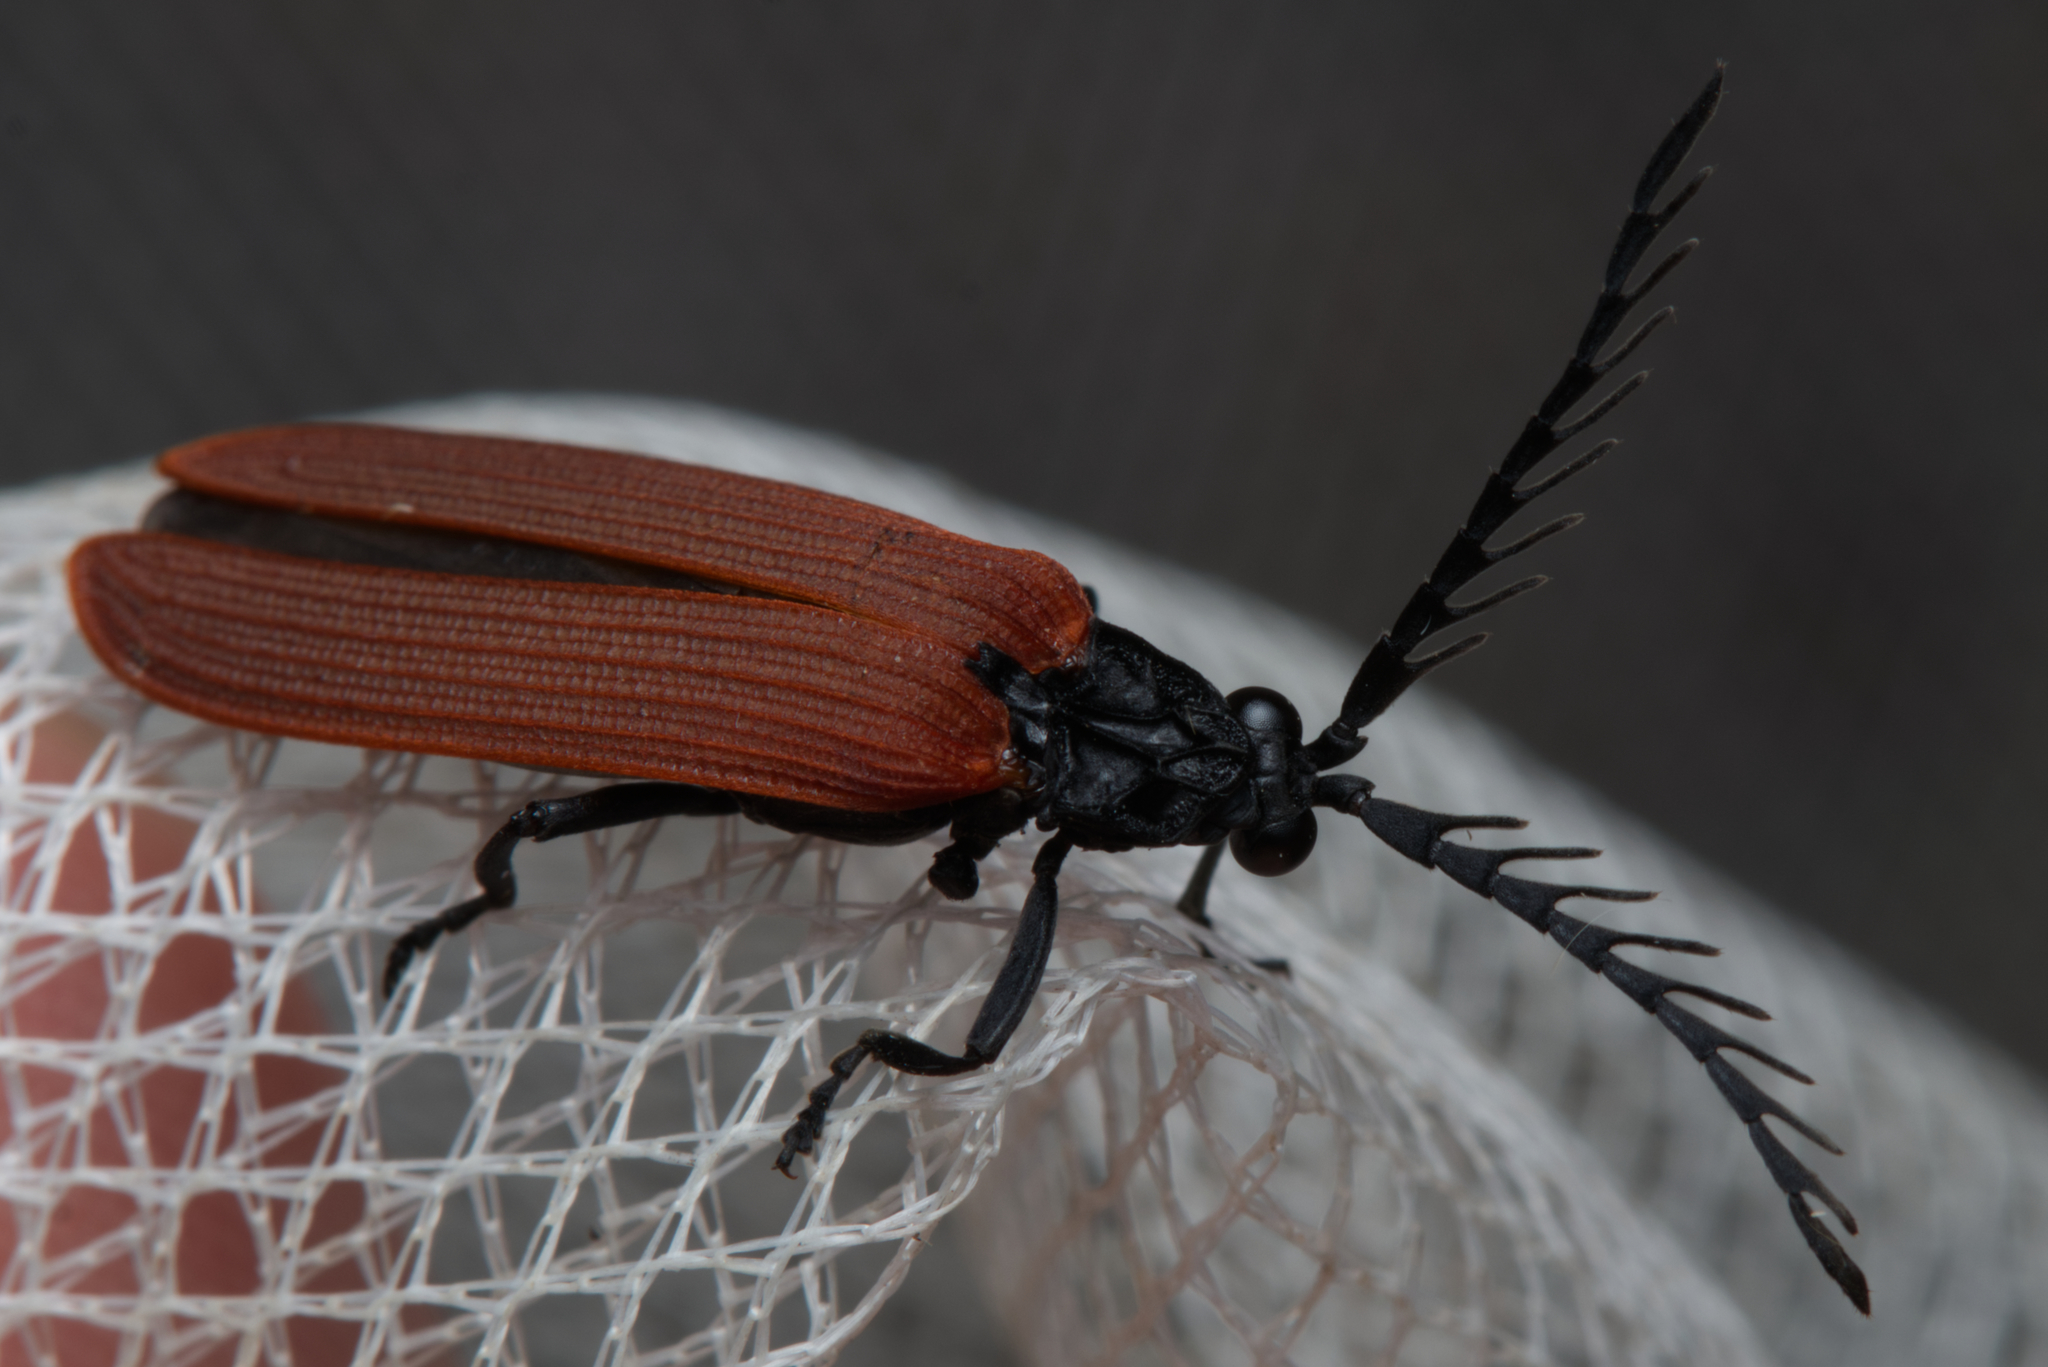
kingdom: Animalia
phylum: Arthropoda
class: Insecta
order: Coleoptera
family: Lycidae
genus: Porrostoma
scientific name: Porrostoma rhipidium
